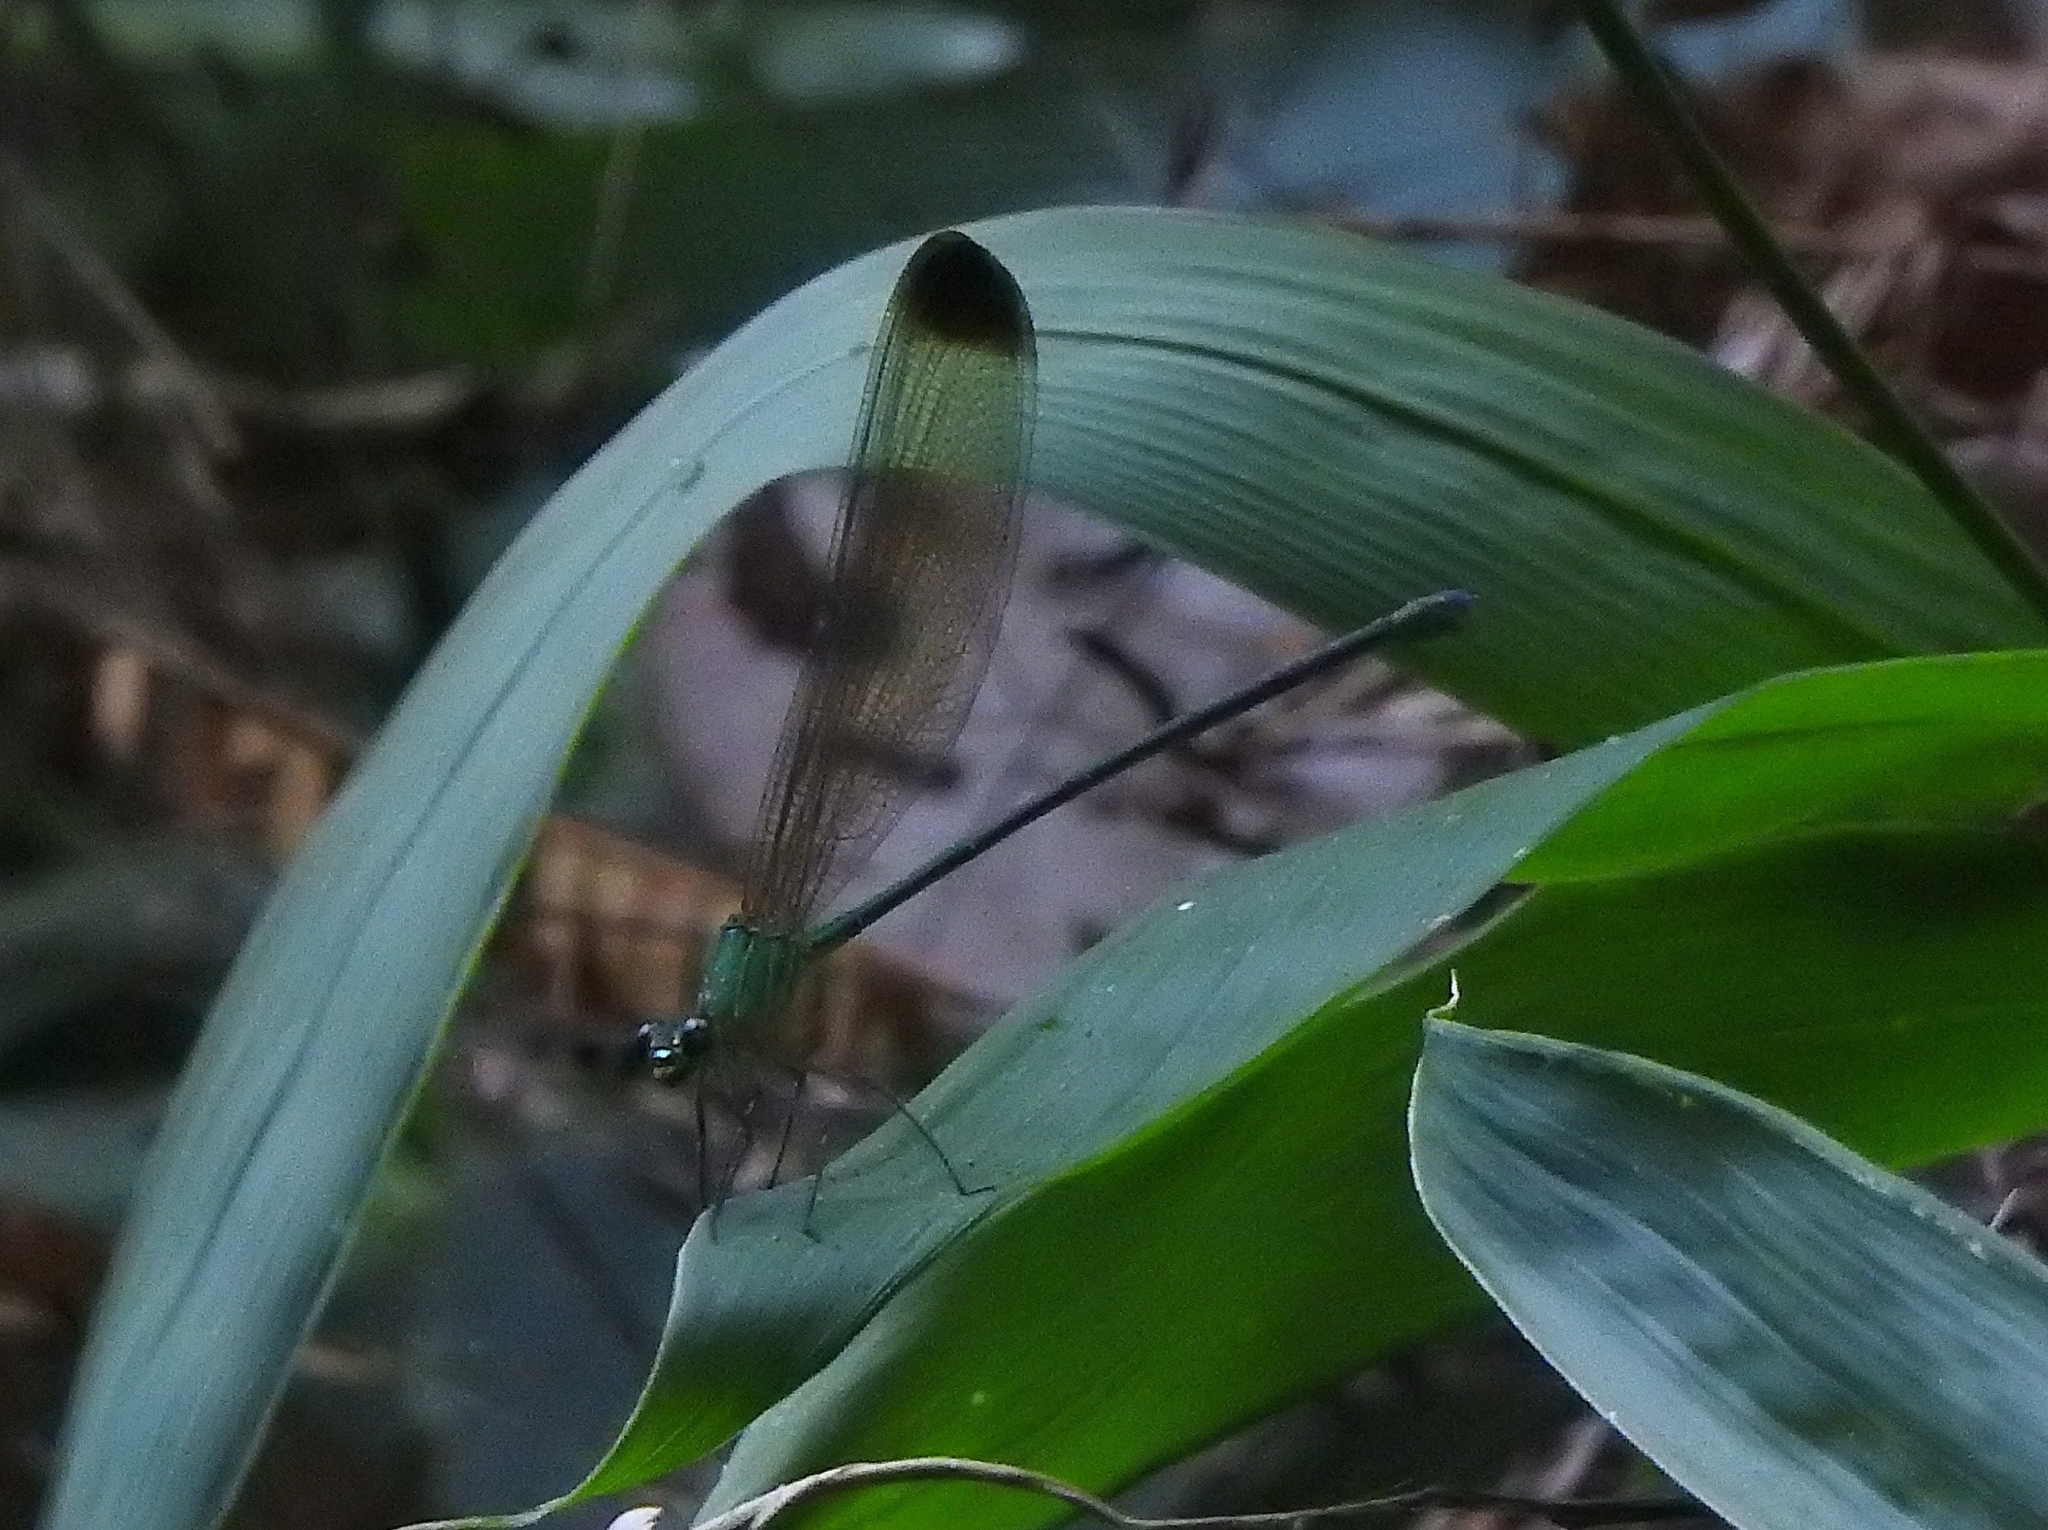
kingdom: Animalia
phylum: Arthropoda
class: Insecta
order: Odonata
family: Calopterygidae
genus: Vestalis
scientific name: Vestalis apicalis
